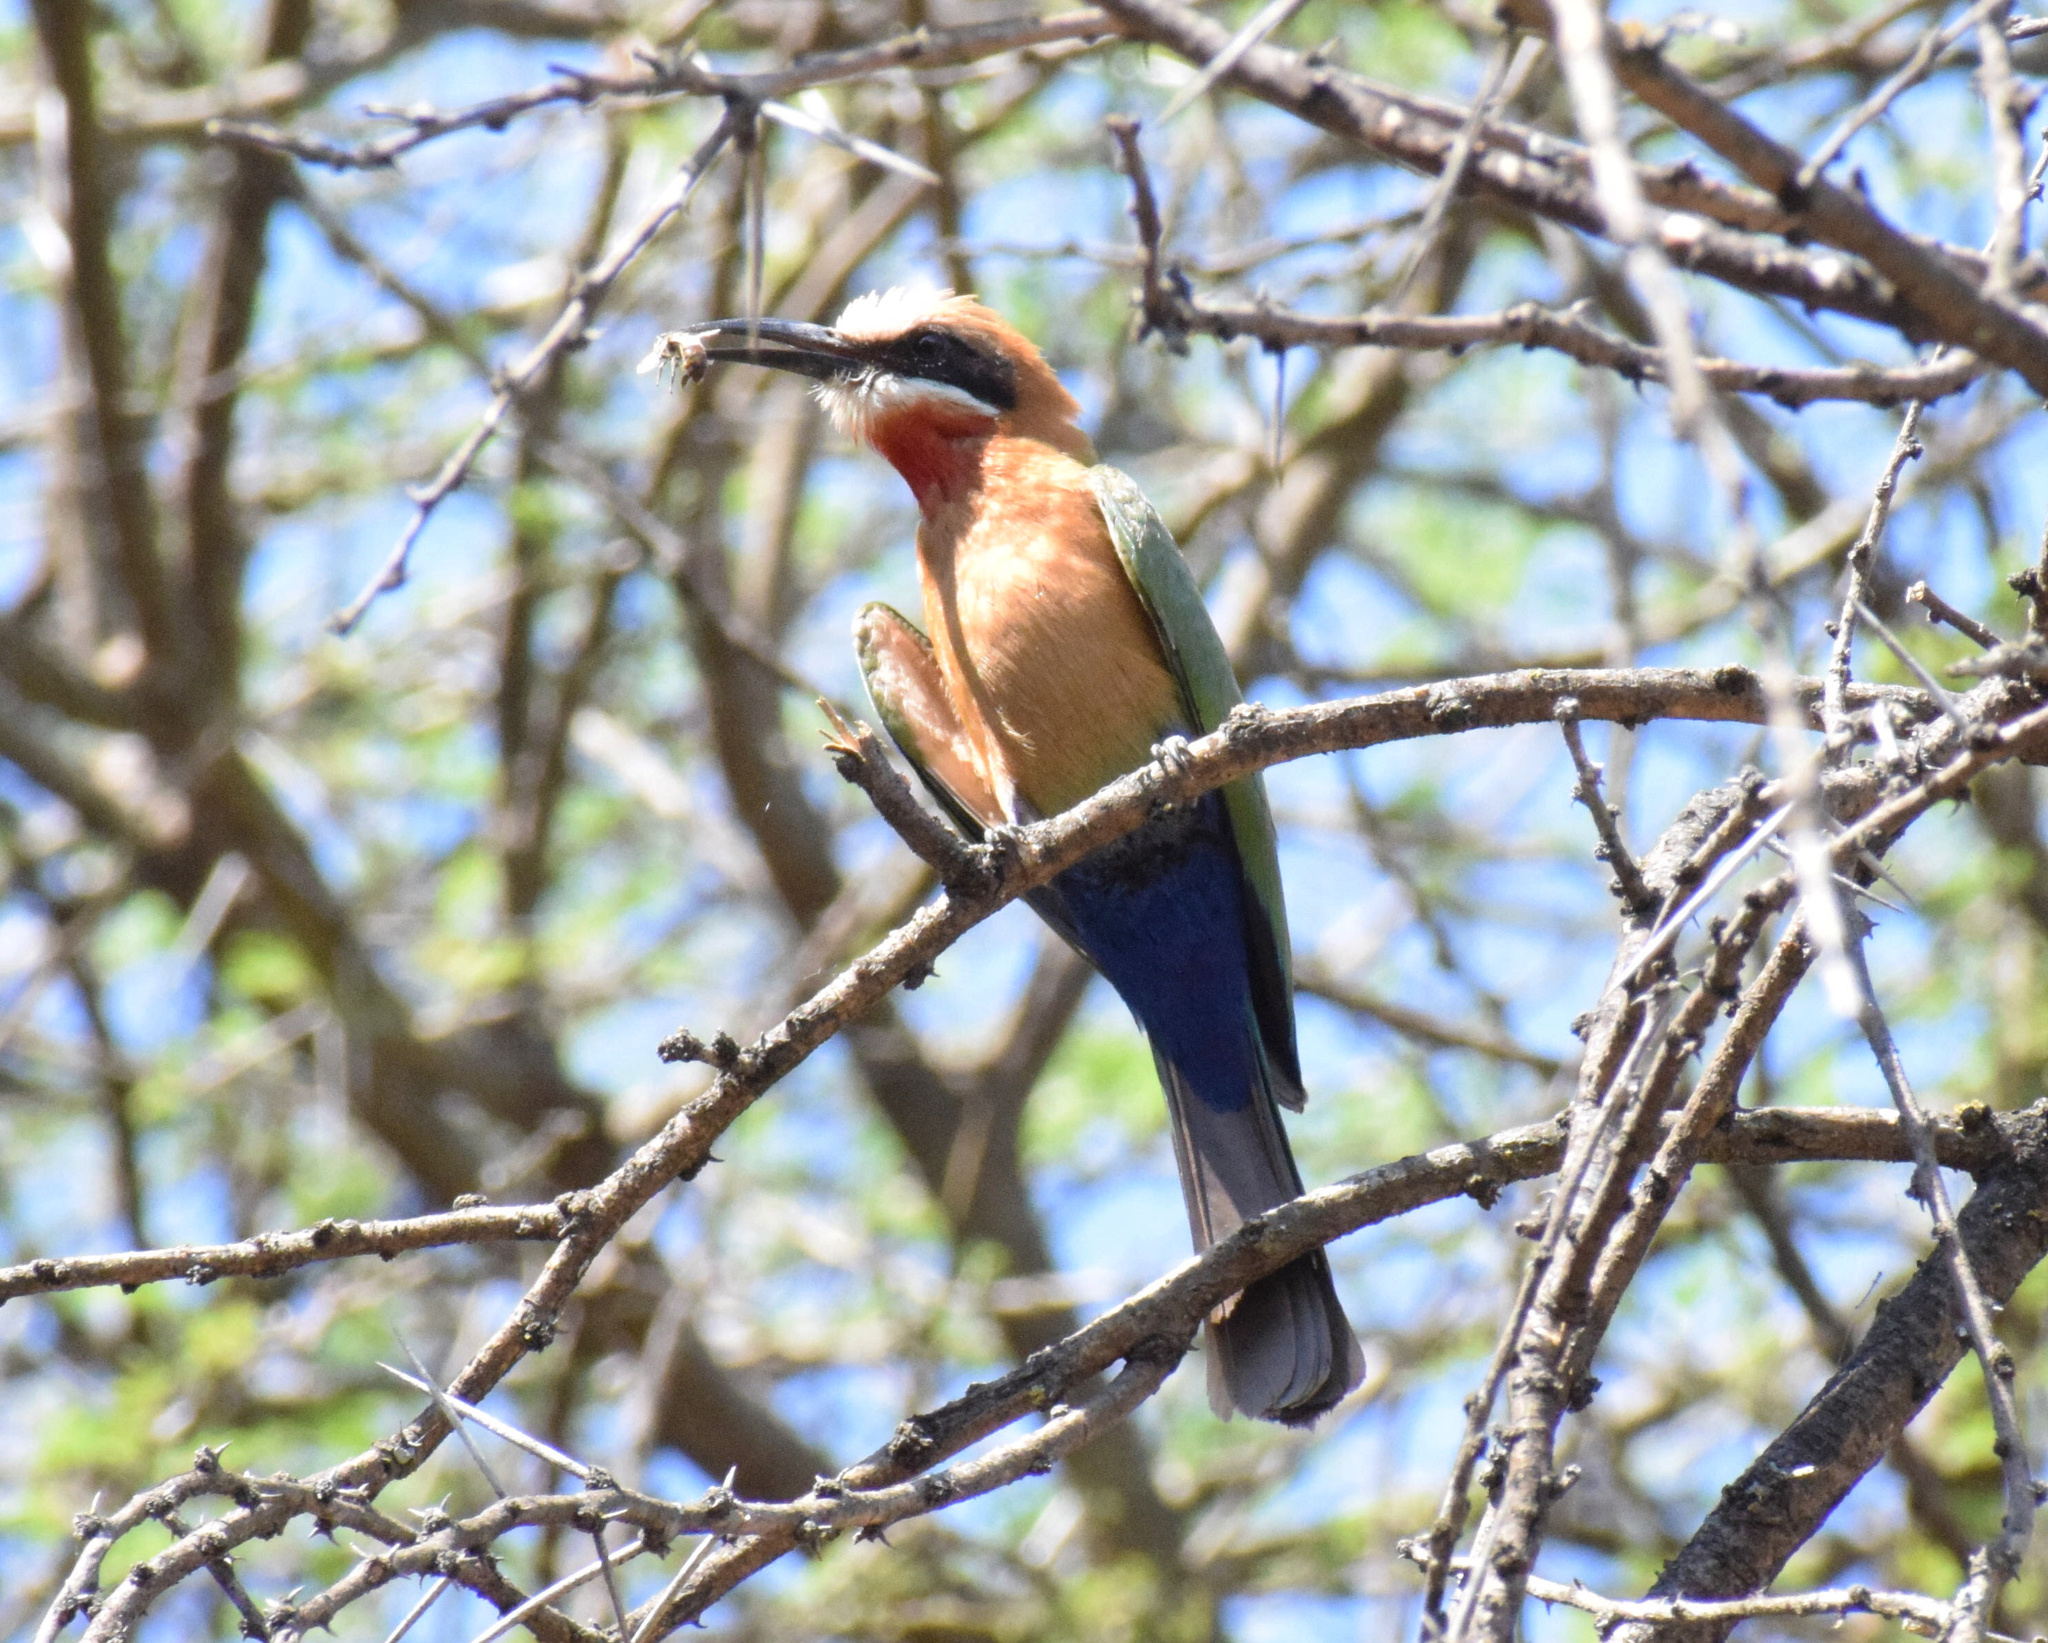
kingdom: Animalia
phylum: Chordata
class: Aves
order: Coraciiformes
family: Meropidae
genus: Merops
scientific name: Merops bullockoides
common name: White-fronted bee-eater
